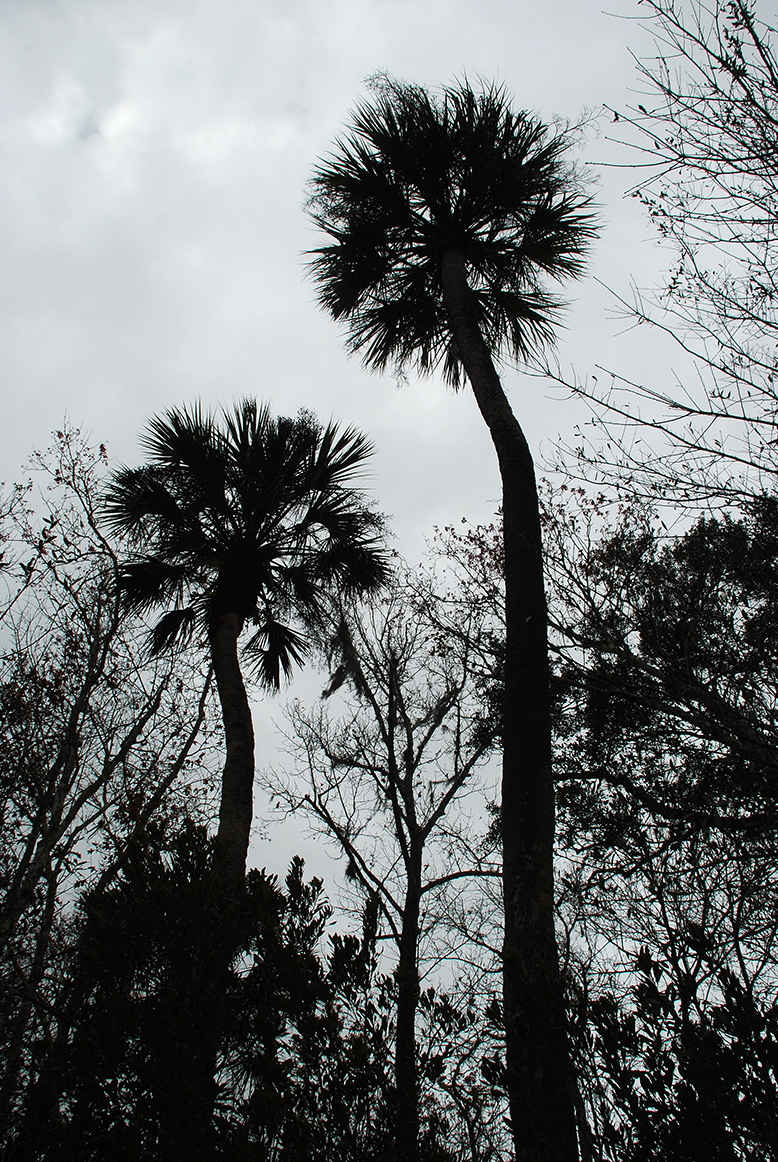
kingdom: Plantae
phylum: Tracheophyta
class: Liliopsida
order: Arecales
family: Arecaceae
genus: Sabal
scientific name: Sabal palmetto
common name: Blue palmetto
